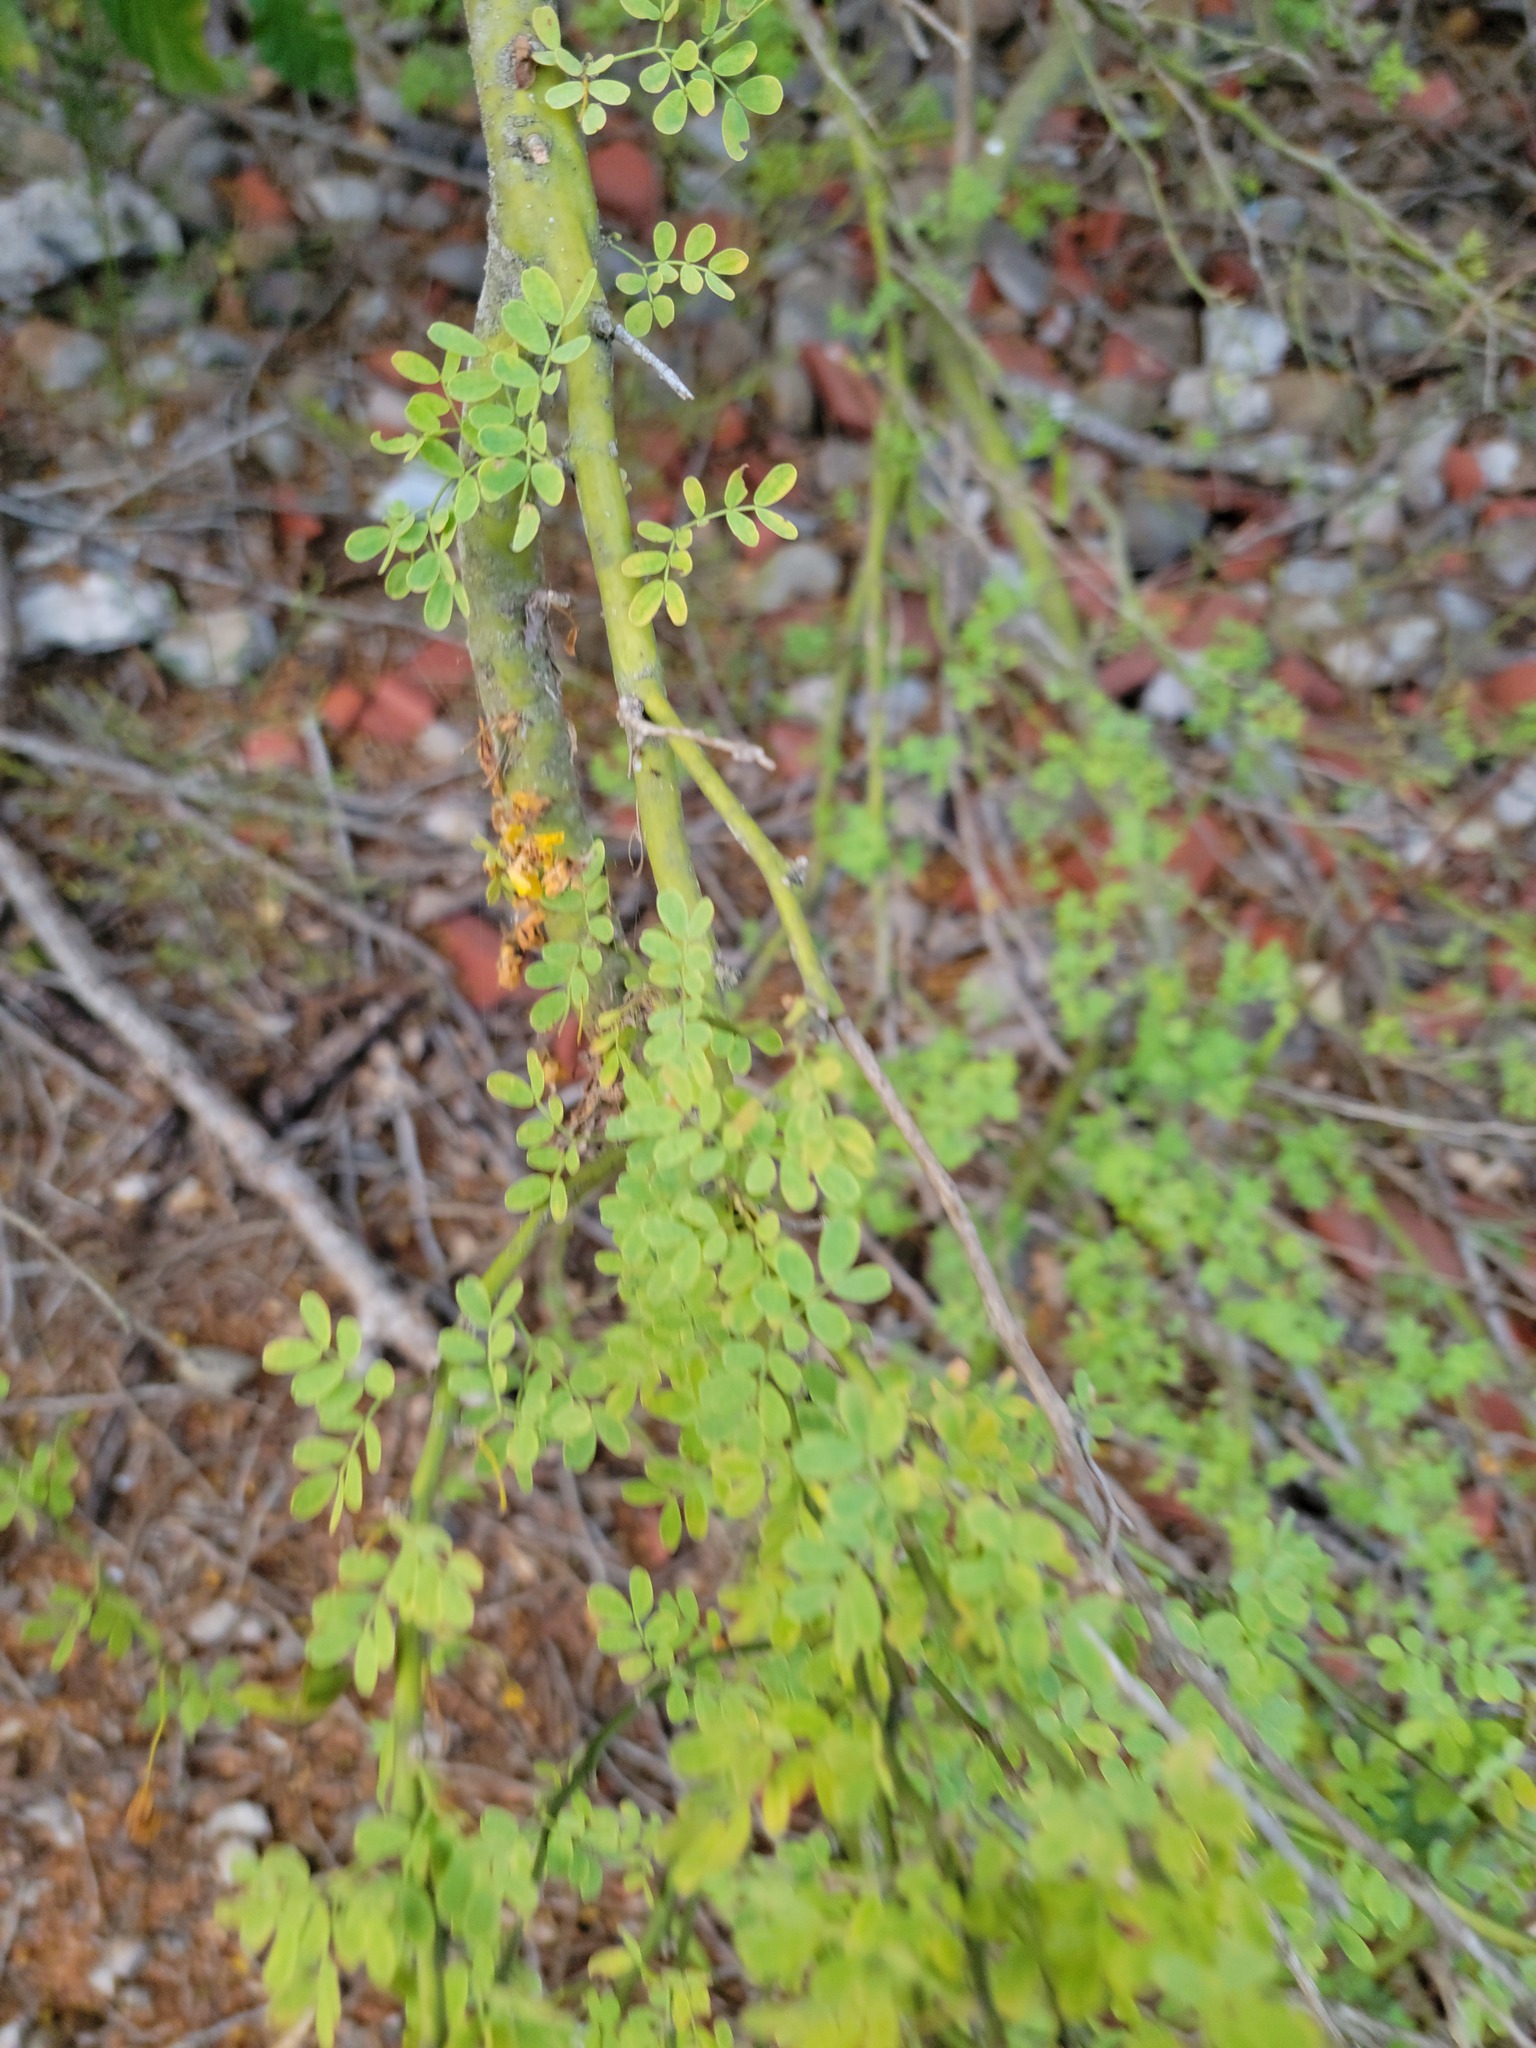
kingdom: Plantae
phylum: Tracheophyta
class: Magnoliopsida
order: Fabales
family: Fabaceae
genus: Parkinsonia
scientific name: Parkinsonia texana
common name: Texas paloverde
